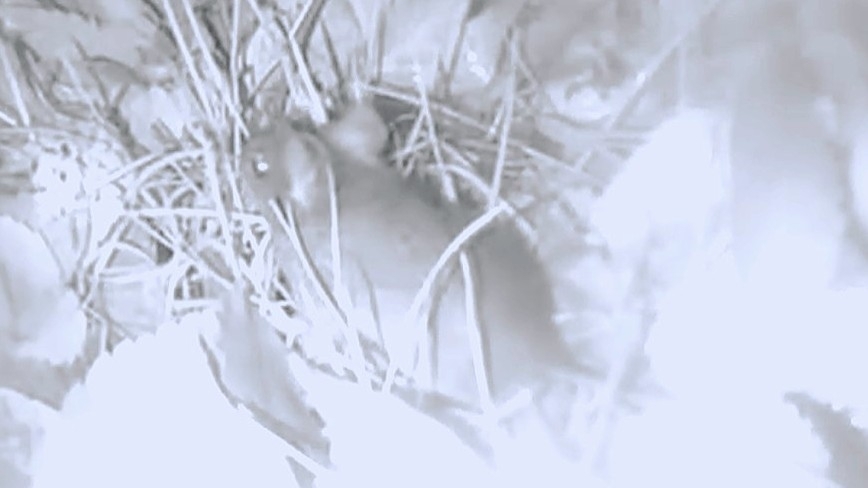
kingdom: Animalia
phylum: Chordata
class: Mammalia
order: Rodentia
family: Muridae
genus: Apodemus
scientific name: Apodemus sylvaticus
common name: Wood mouse
